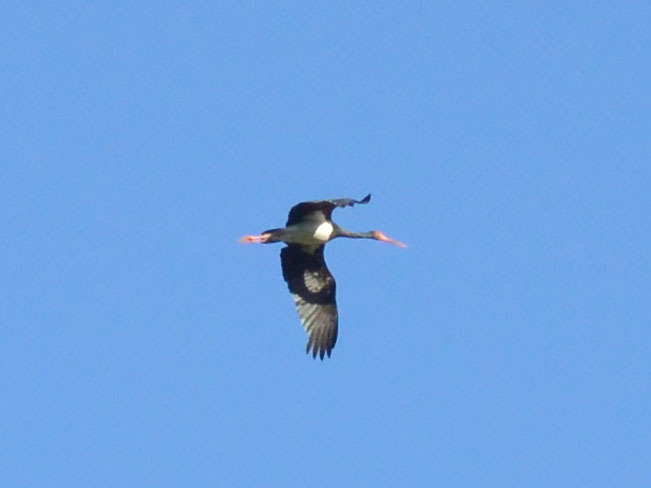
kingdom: Animalia
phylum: Chordata
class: Aves
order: Ciconiiformes
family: Ciconiidae
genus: Ciconia
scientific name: Ciconia nigra
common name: Black stork
